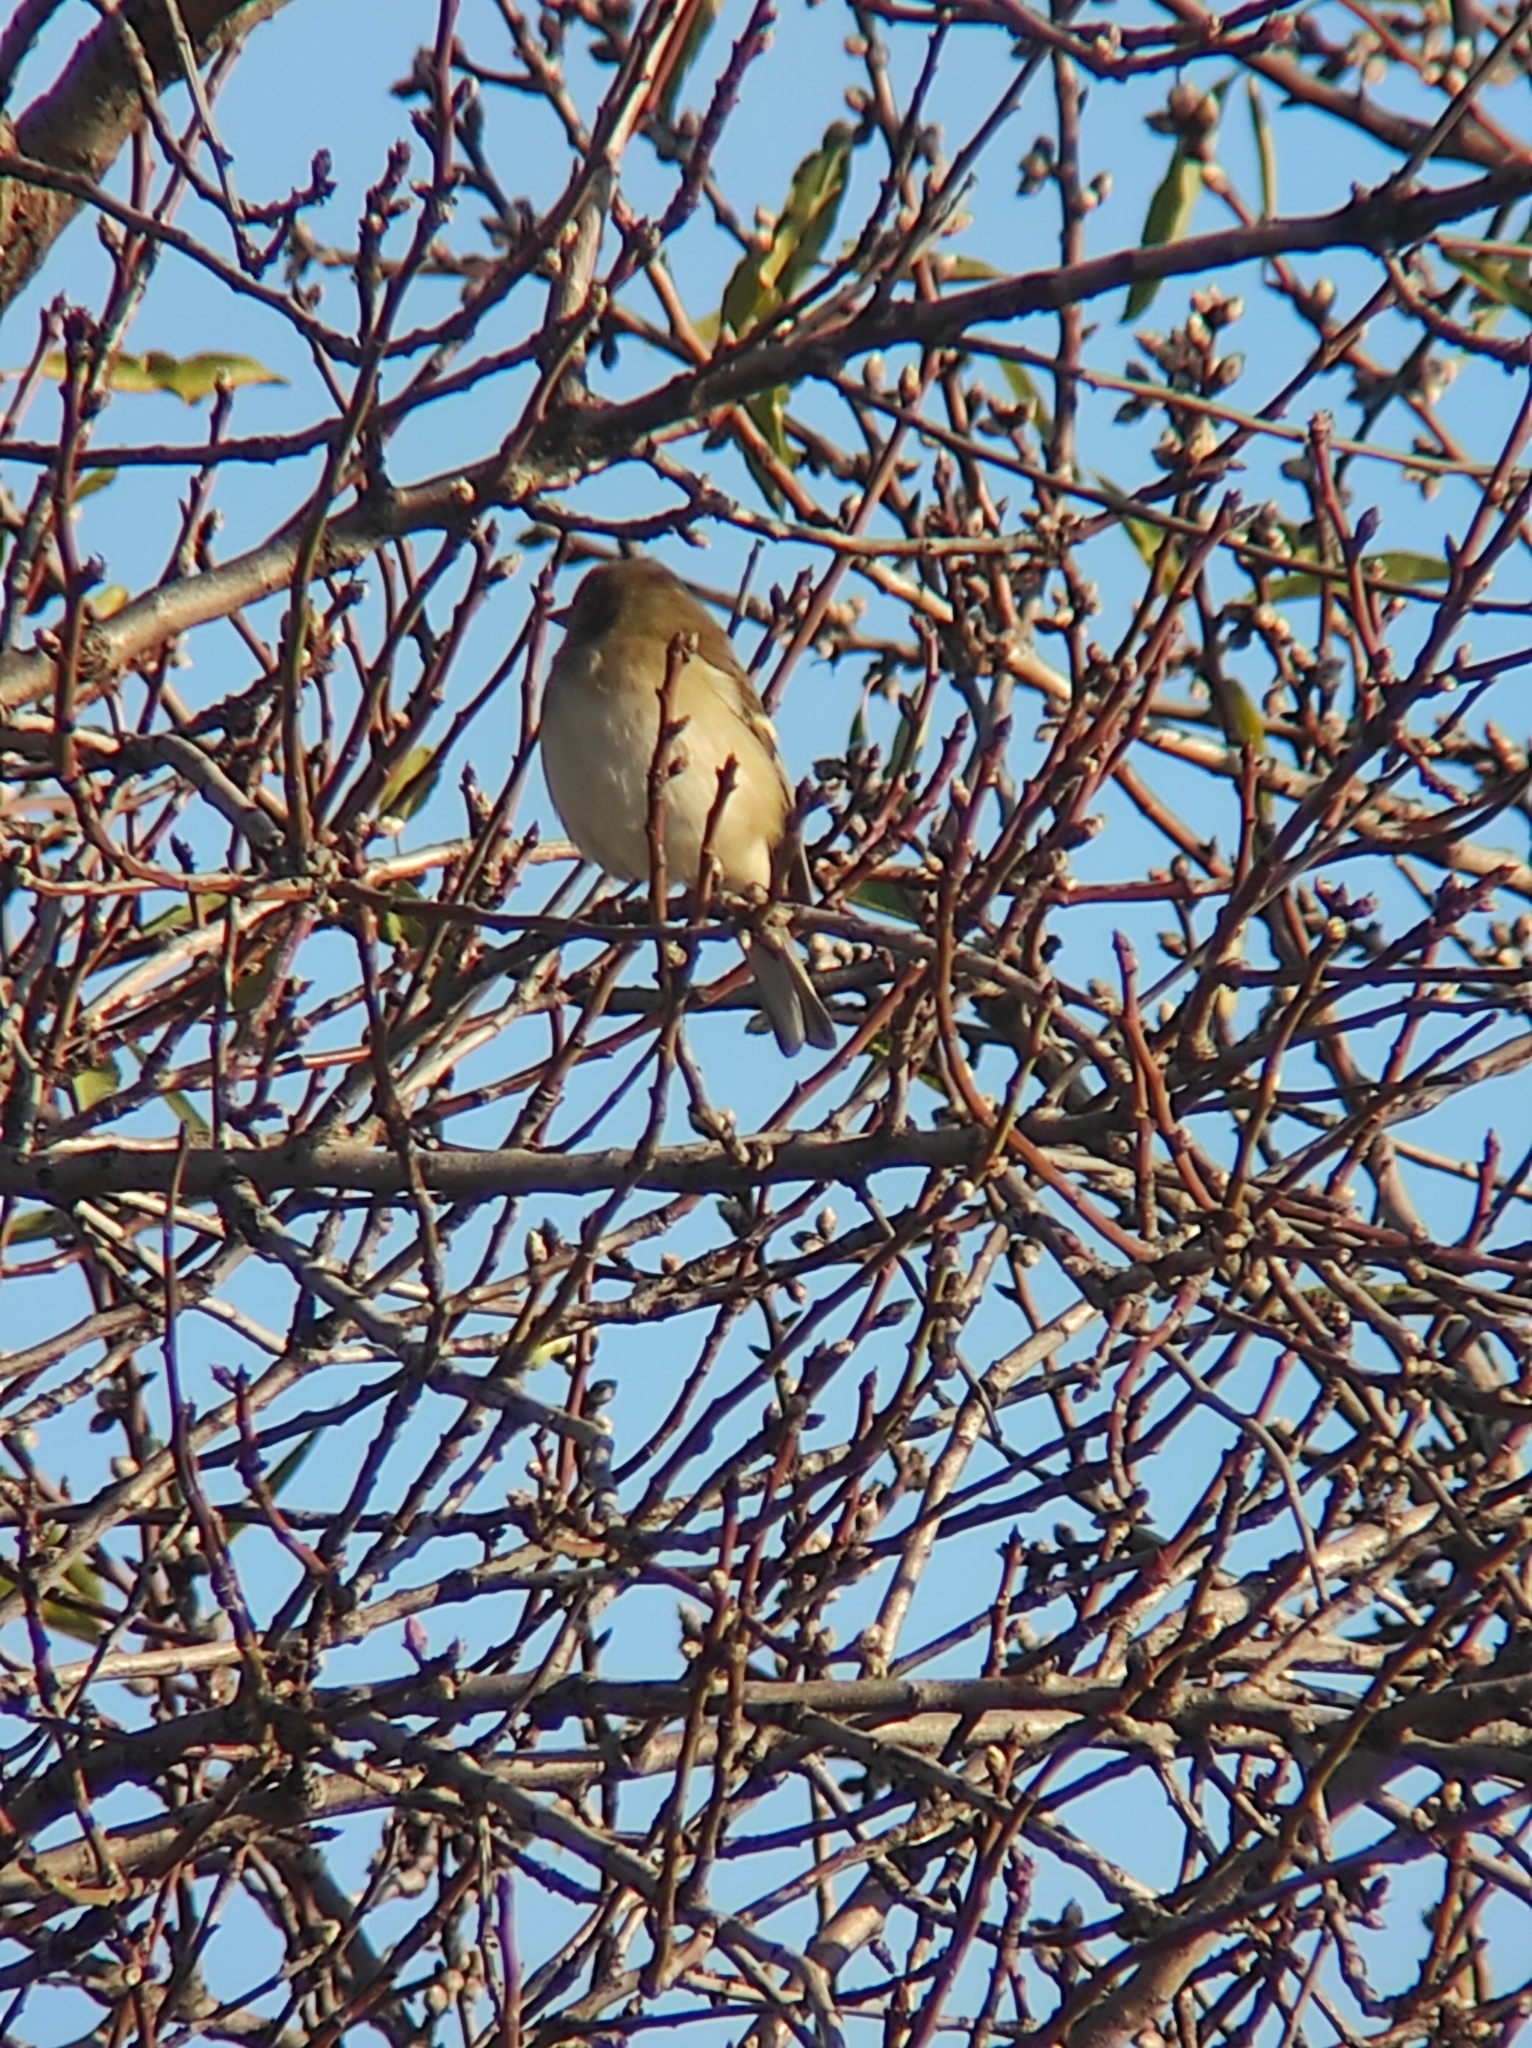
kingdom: Animalia
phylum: Chordata
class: Aves
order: Passeriformes
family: Fringillidae
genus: Fringilla
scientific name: Fringilla coelebs
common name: Common chaffinch
